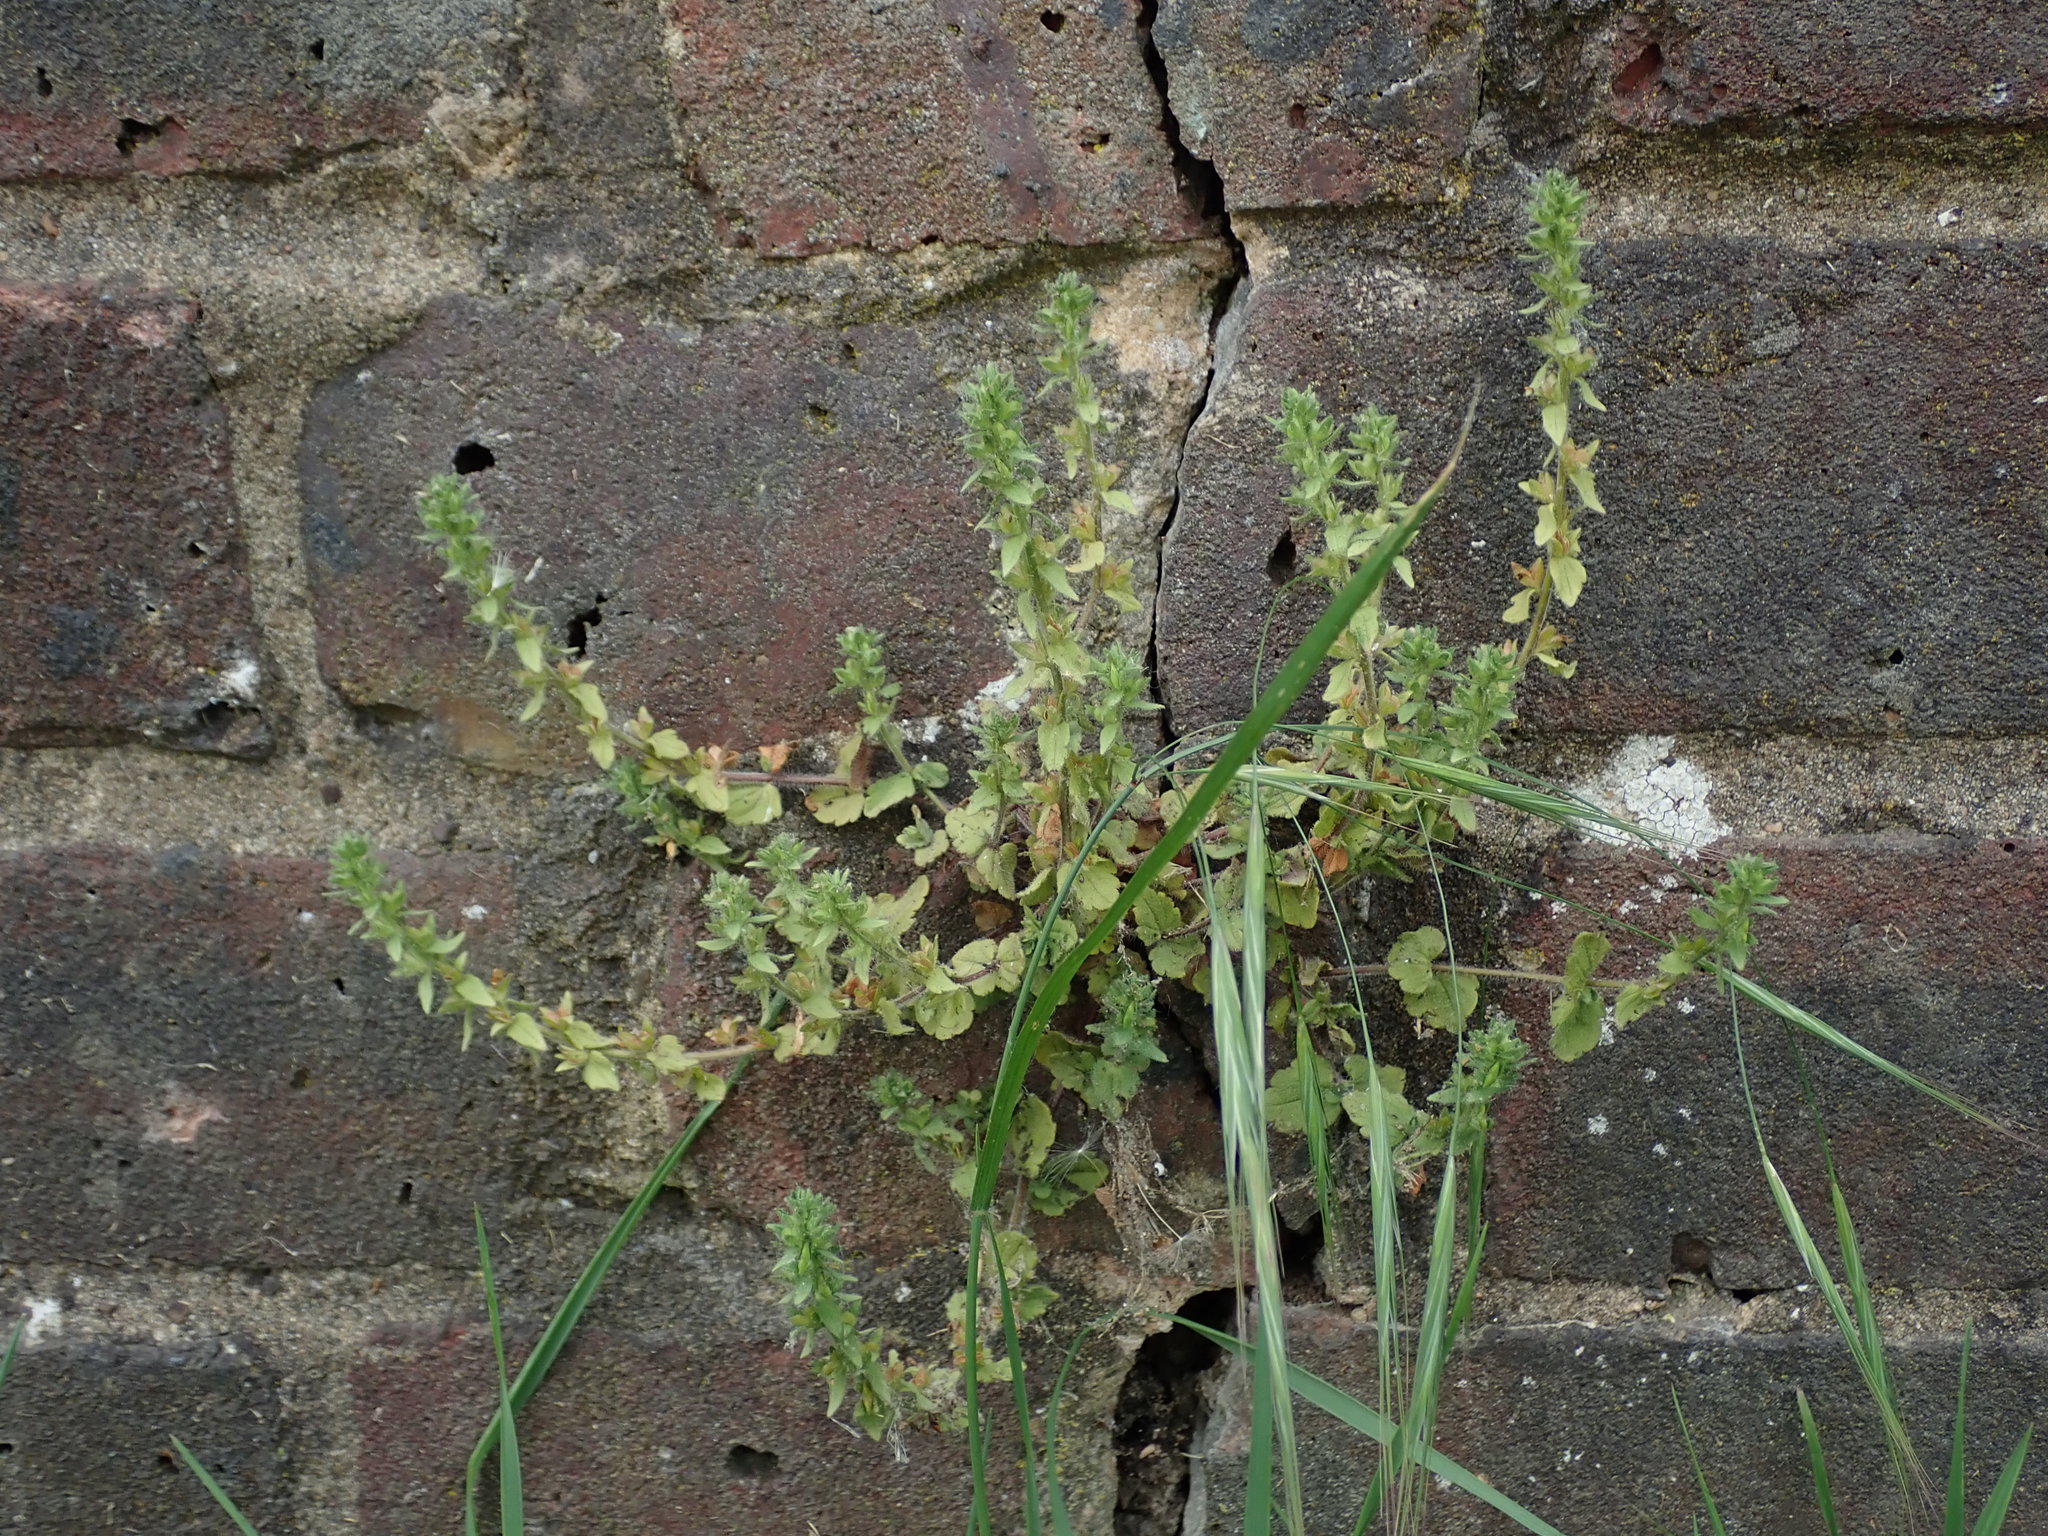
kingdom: Plantae
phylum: Tracheophyta
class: Magnoliopsida
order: Lamiales
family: Plantaginaceae
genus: Veronica
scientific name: Veronica arvensis
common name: Corn speedwell
